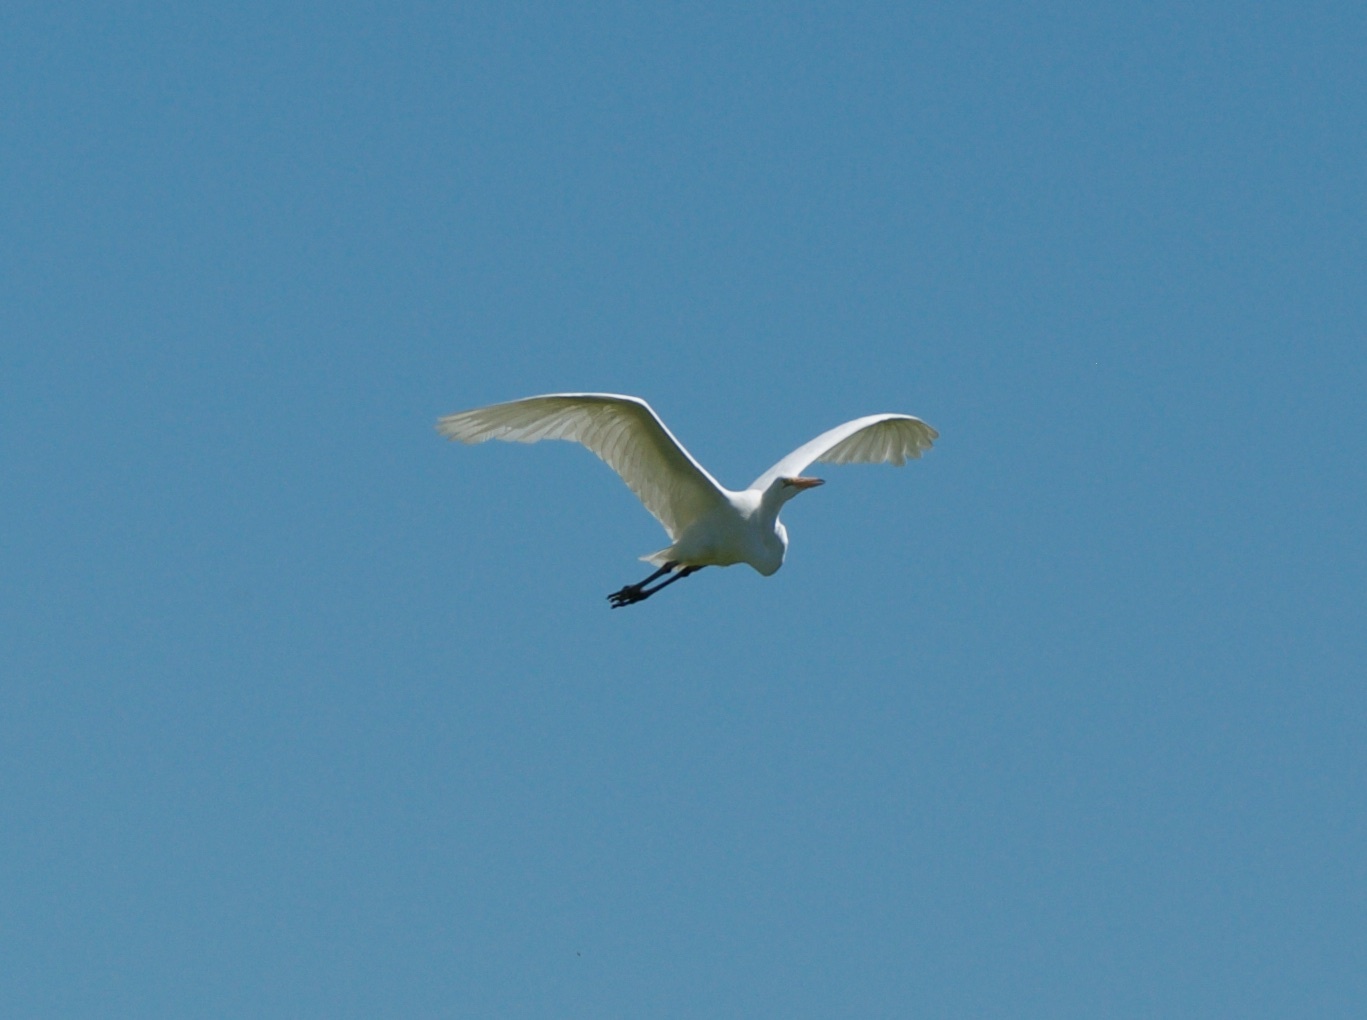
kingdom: Animalia
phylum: Chordata
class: Aves
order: Pelecaniformes
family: Ardeidae
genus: Ardea
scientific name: Ardea alba
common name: Great egret
